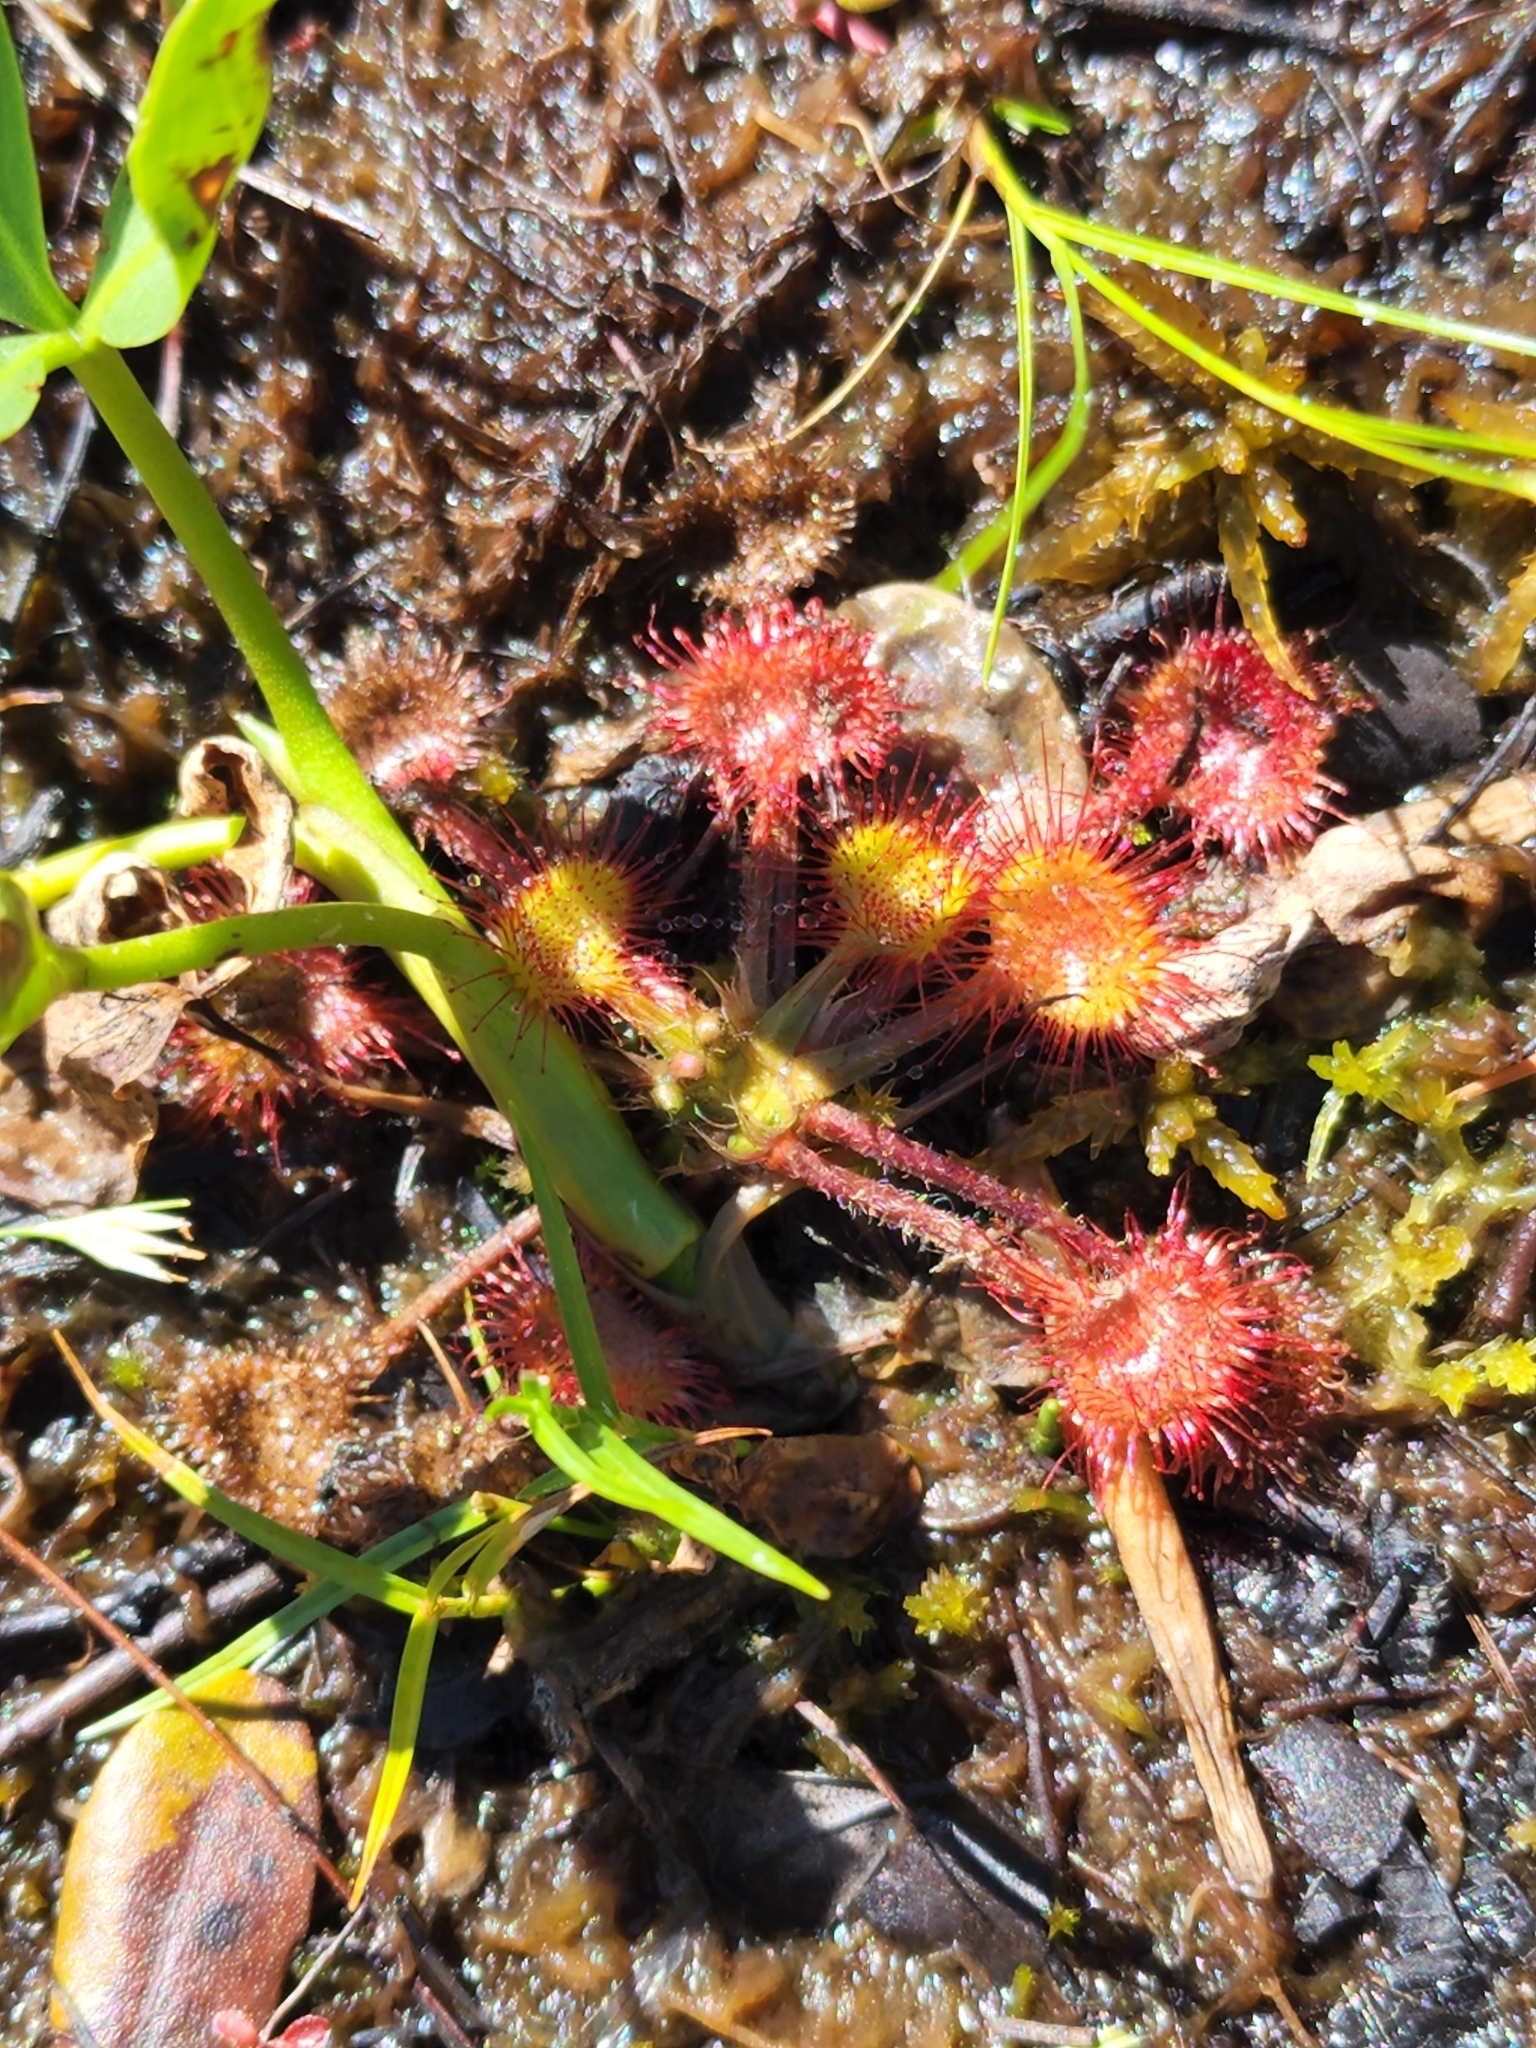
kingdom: Plantae
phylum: Tracheophyta
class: Magnoliopsida
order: Caryophyllales
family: Droseraceae
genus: Drosera
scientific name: Drosera rotundifolia
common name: Round-leaved sundew
